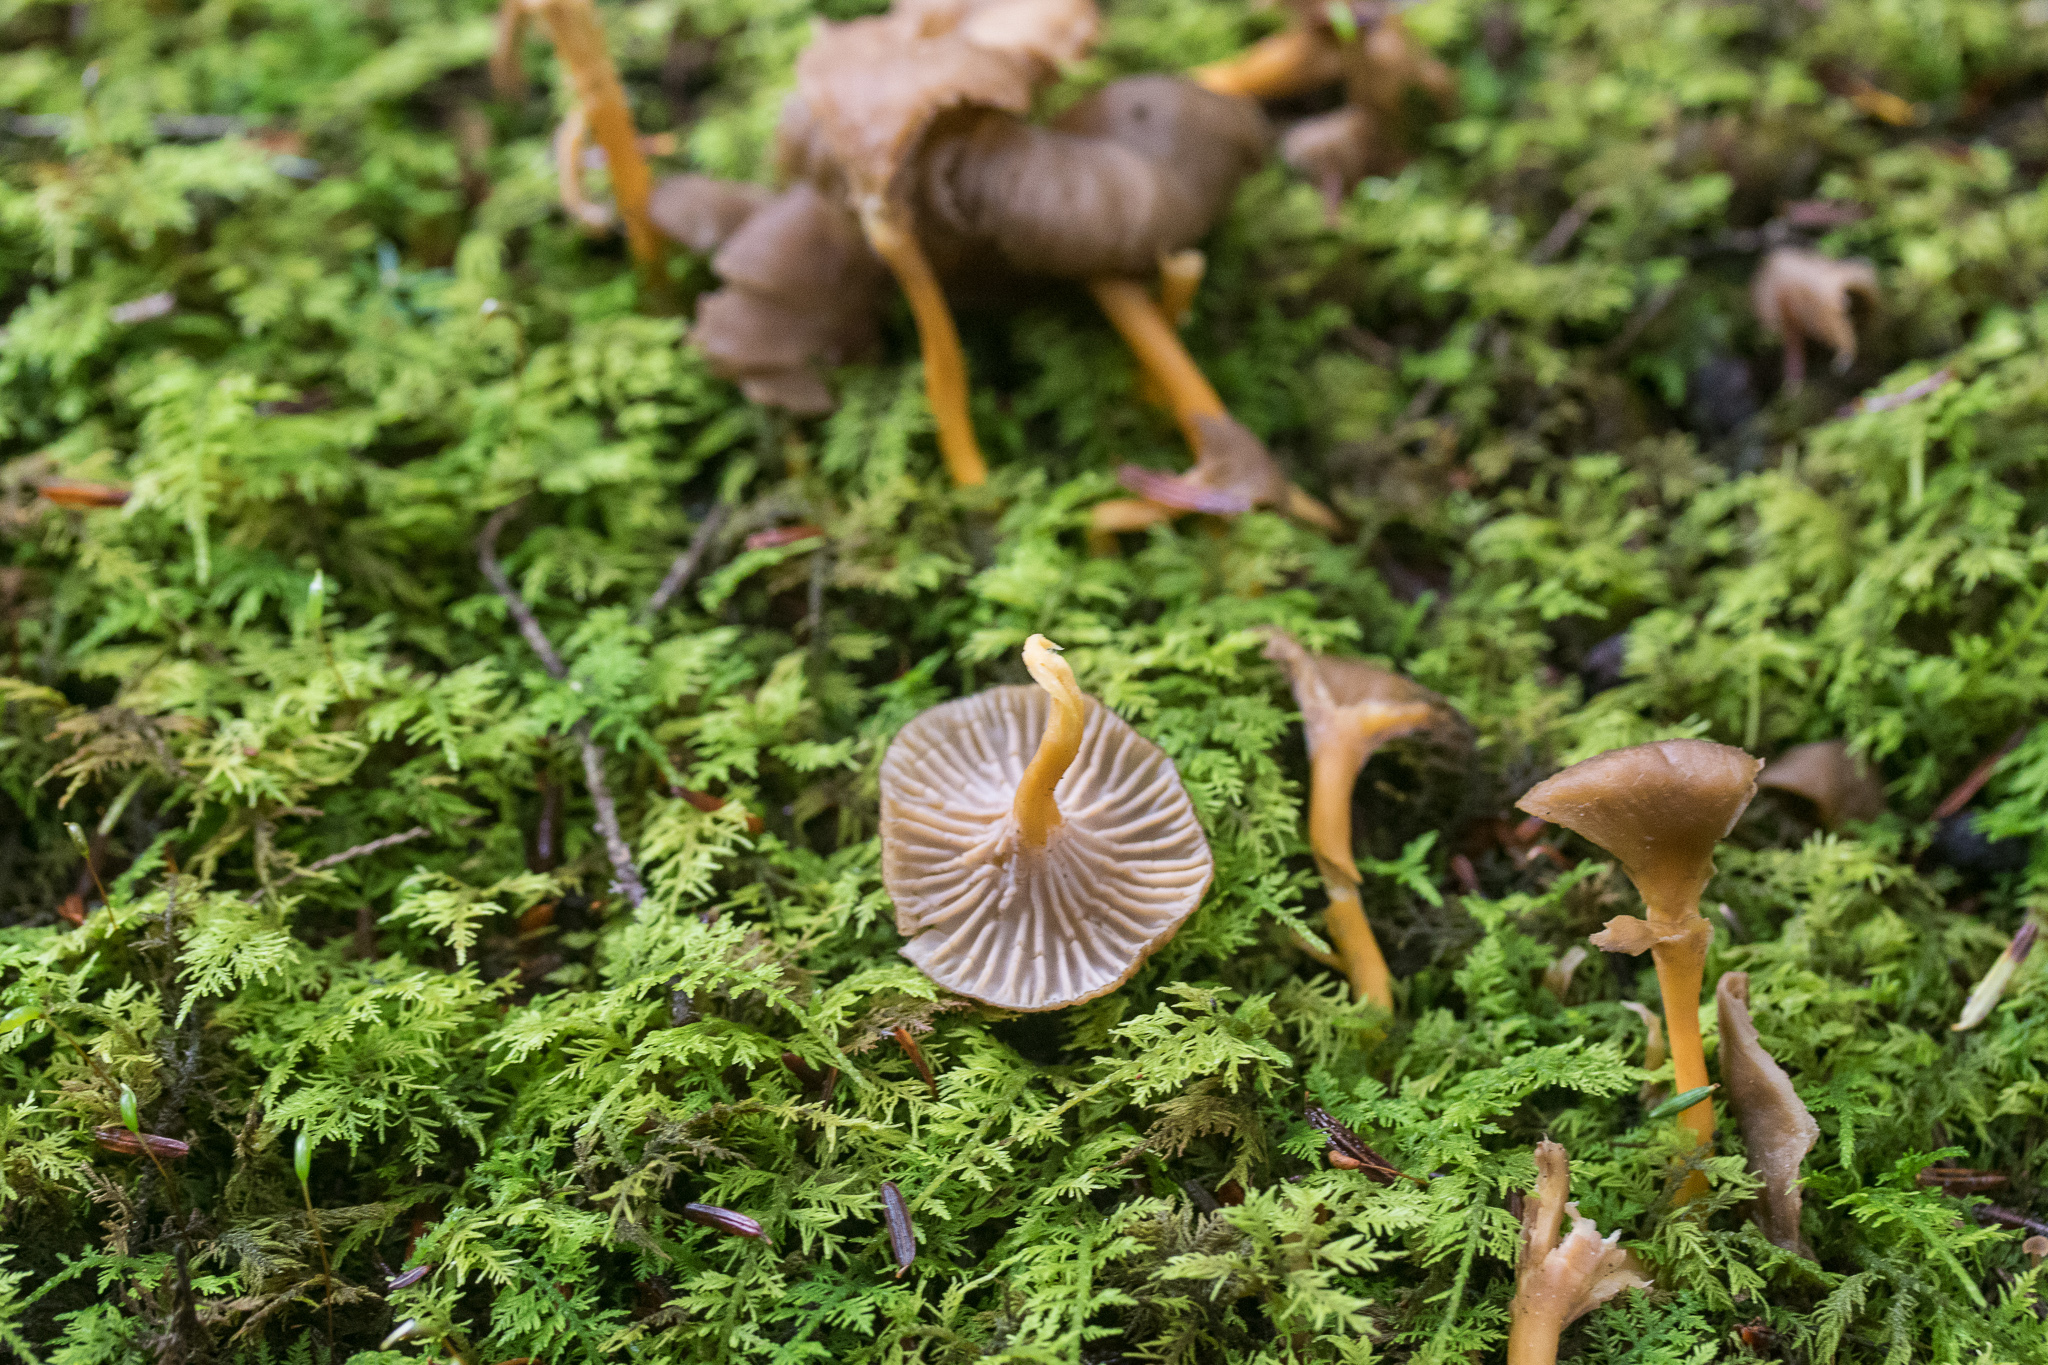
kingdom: Fungi
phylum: Basidiomycota
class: Agaricomycetes
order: Cantharellales
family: Hydnaceae
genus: Craterellus
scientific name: Craterellus tubaeformis
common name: Yellowfoot
